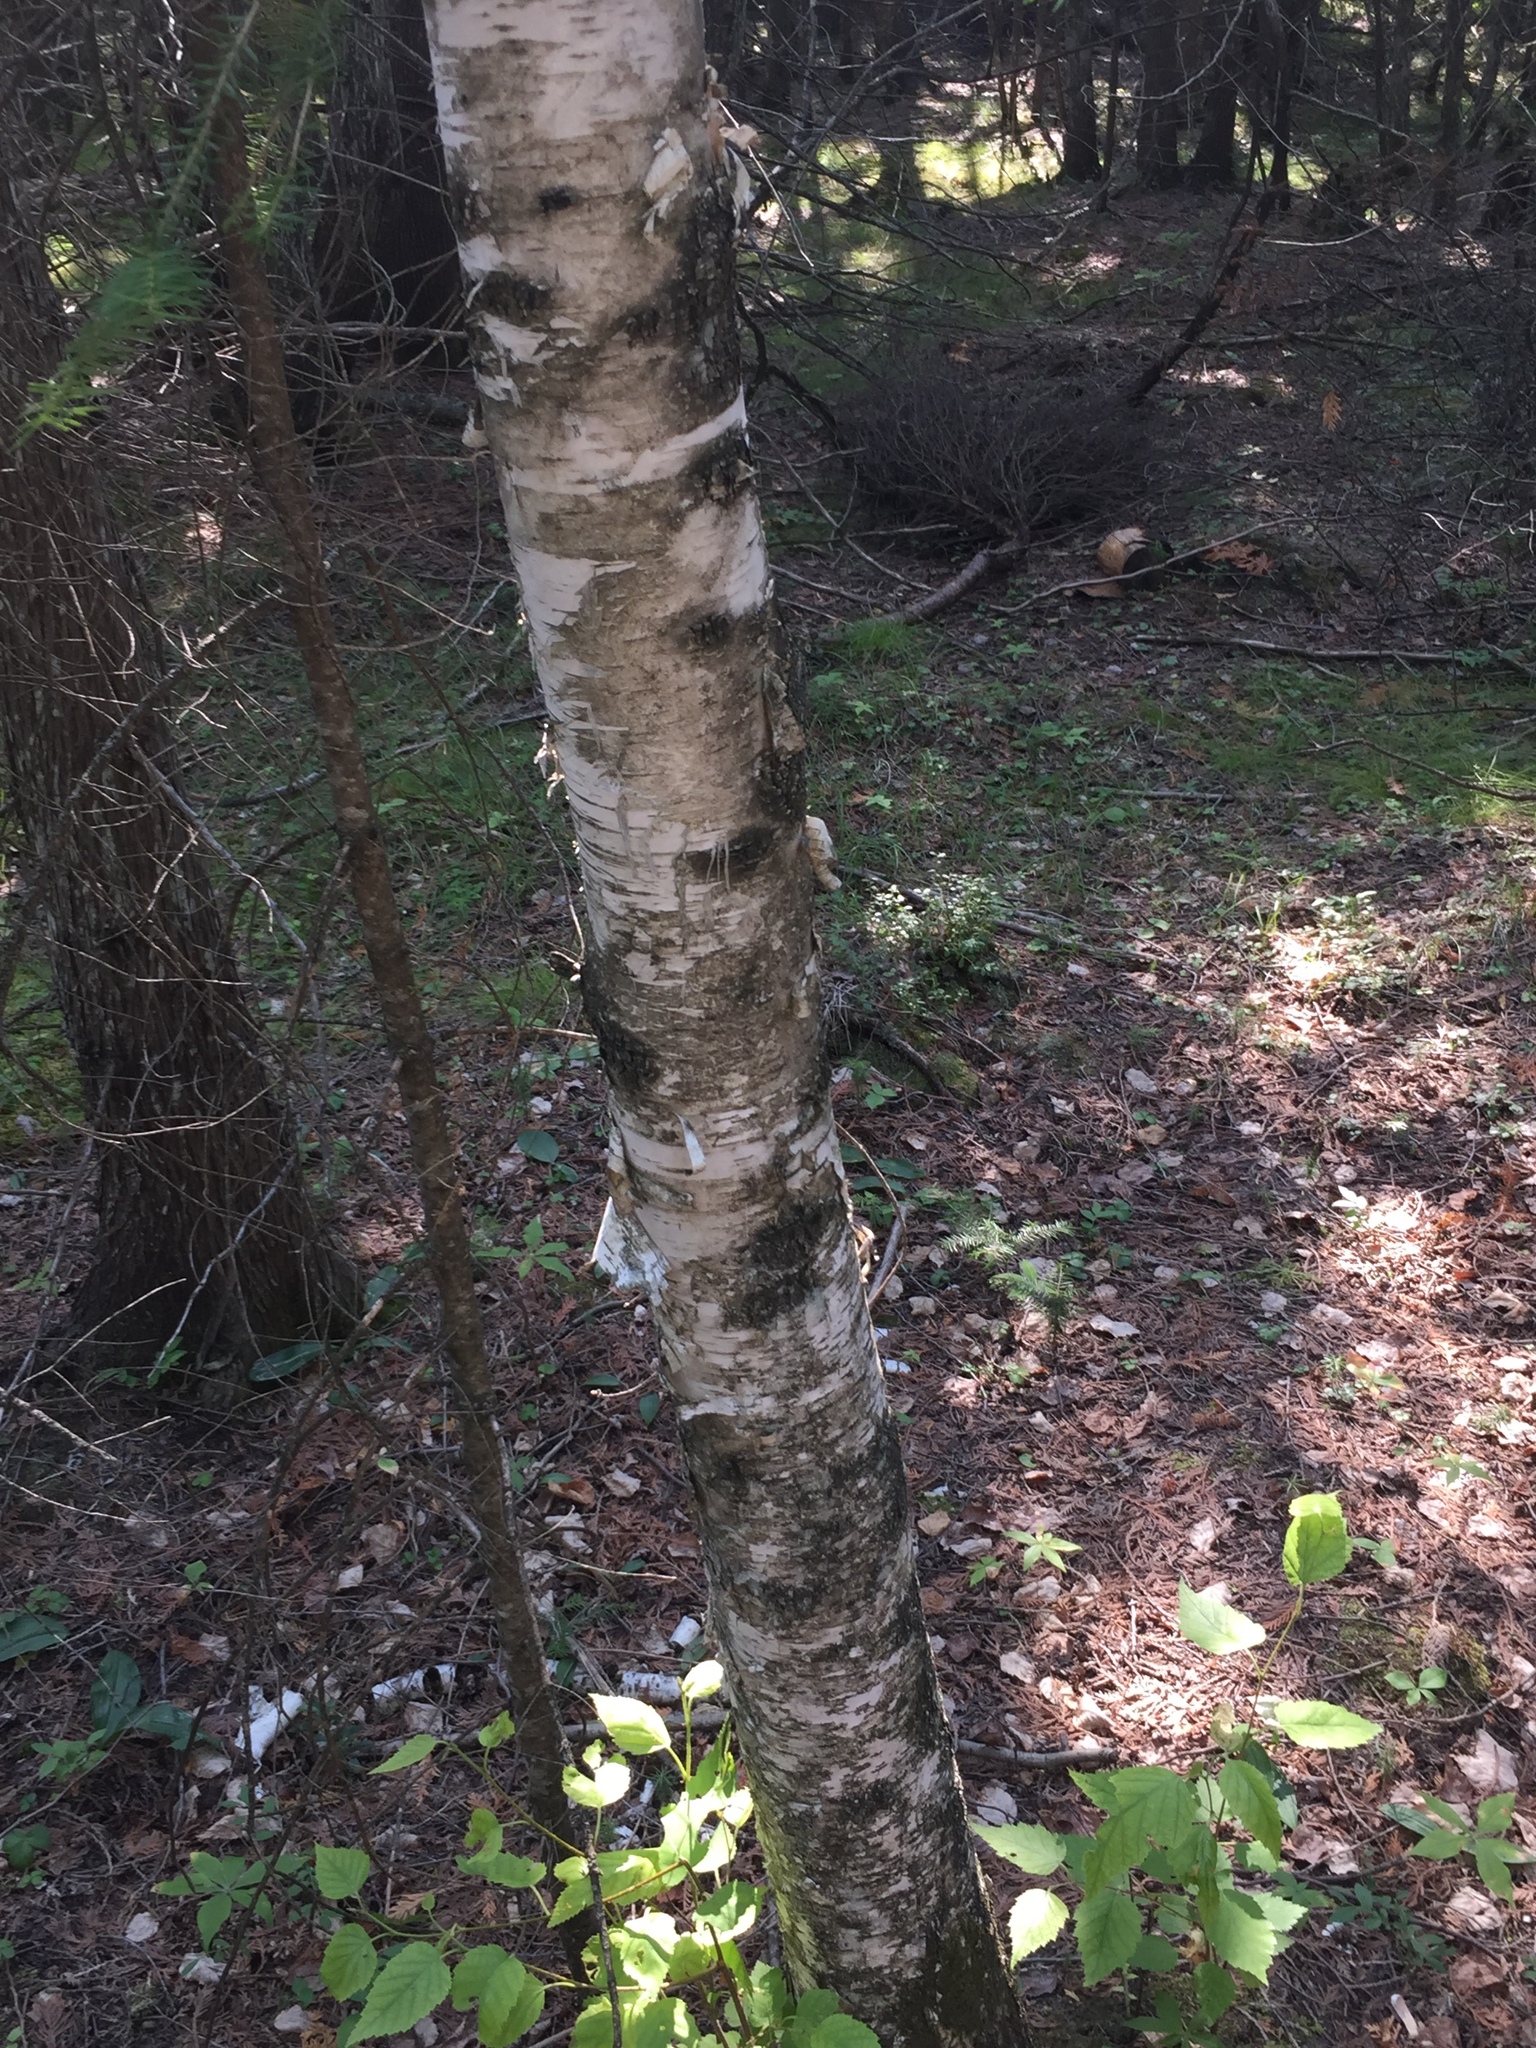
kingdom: Plantae
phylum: Tracheophyta
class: Magnoliopsida
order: Fagales
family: Betulaceae
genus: Betula
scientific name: Betula papyrifera
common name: Paper birch
